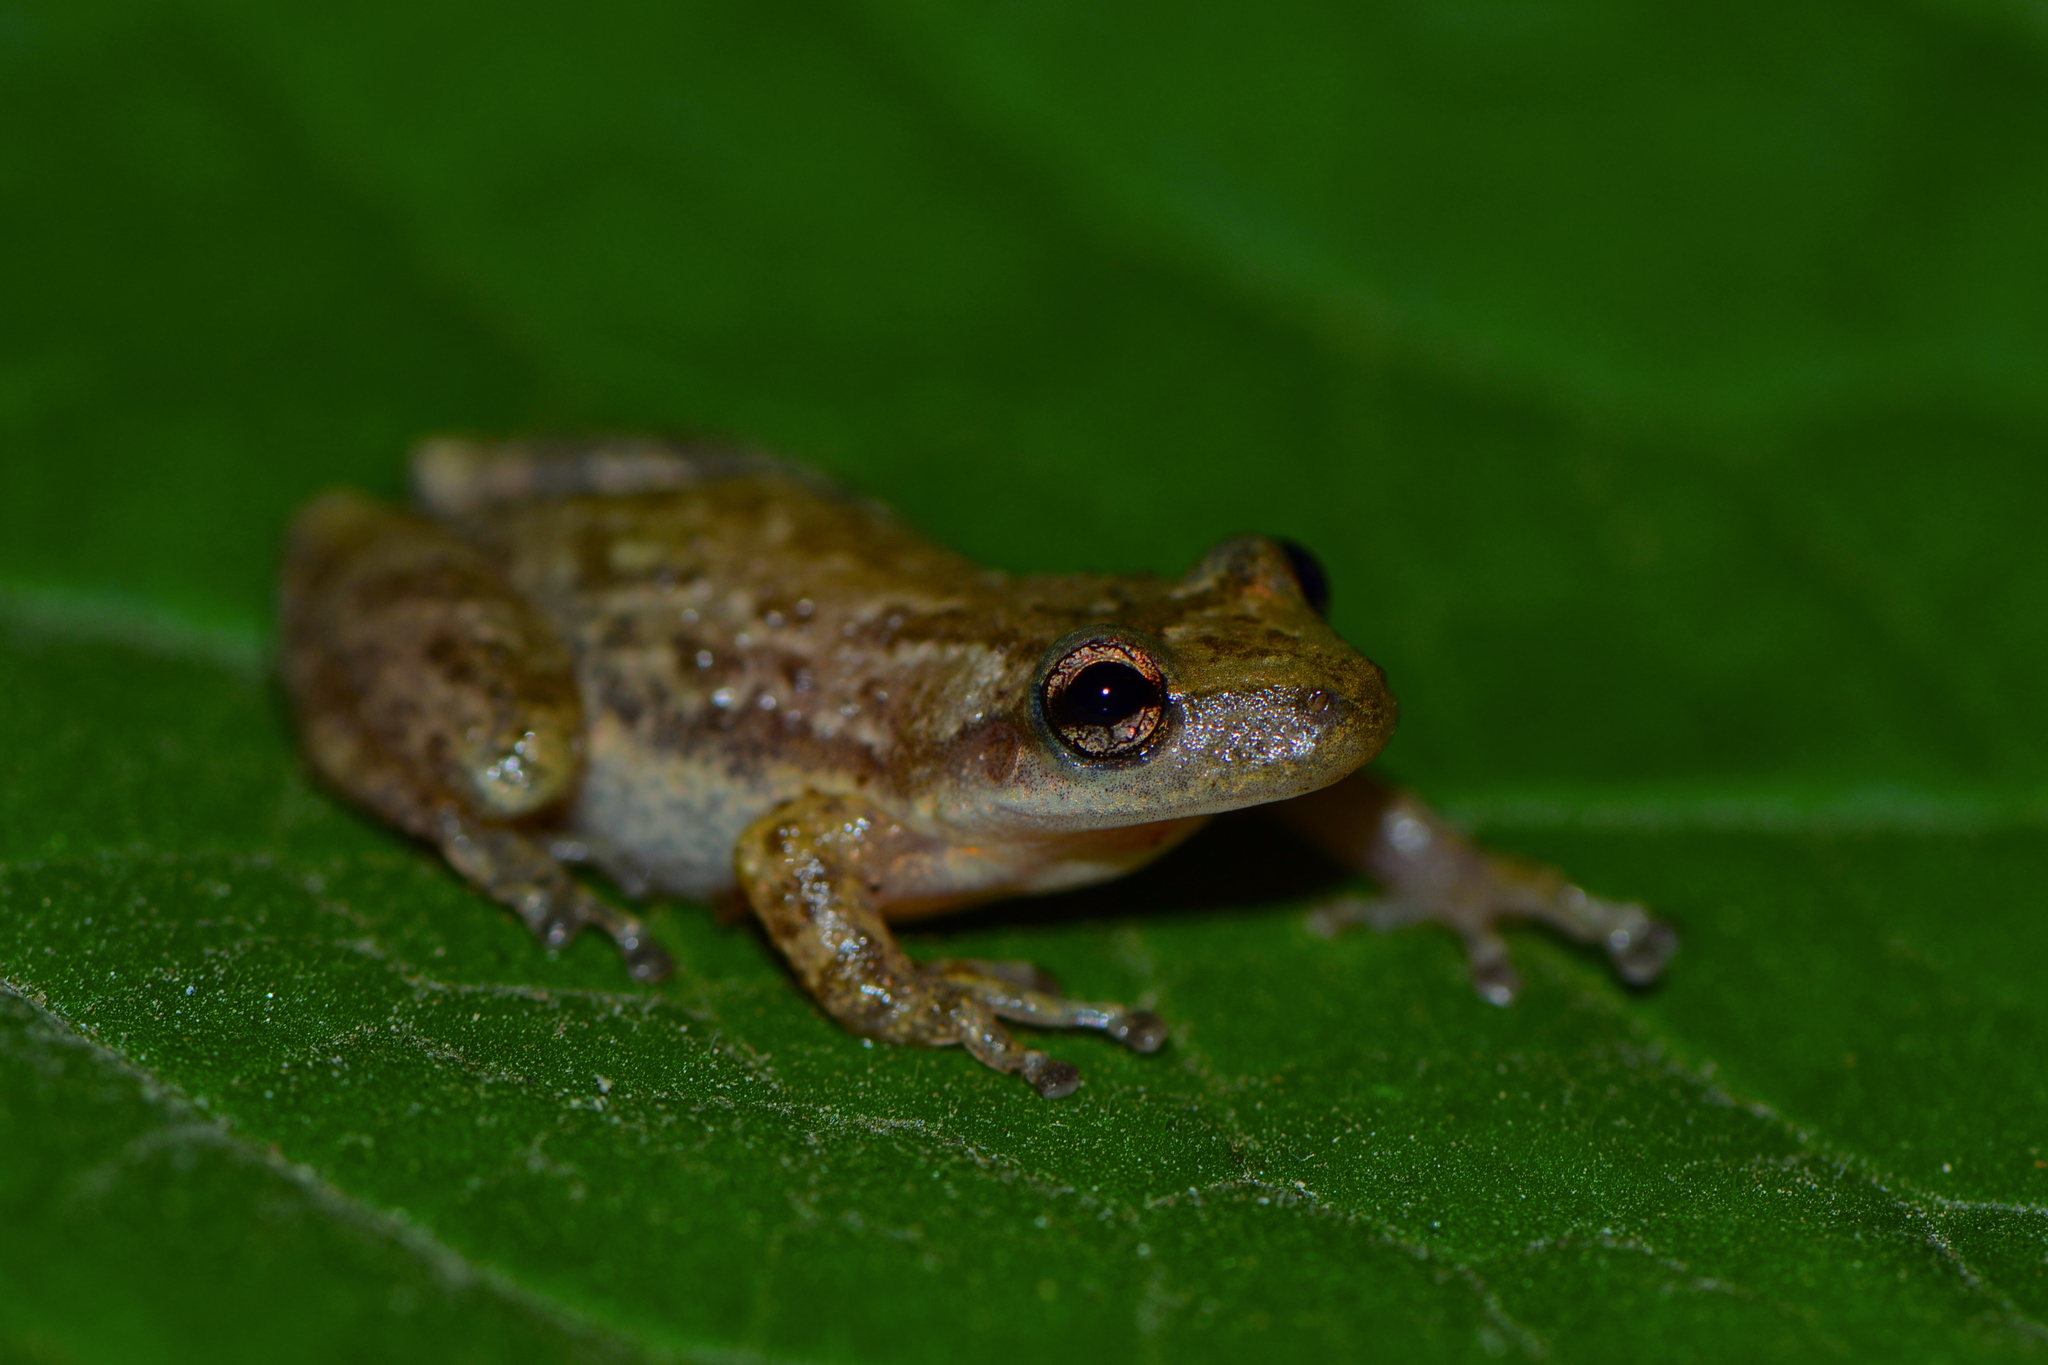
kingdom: Animalia
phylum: Chordata
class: Amphibia
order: Anura
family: Hylidae
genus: Scinax
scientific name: Scinax staufferi
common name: Stauffer's long-nosed treefrog
